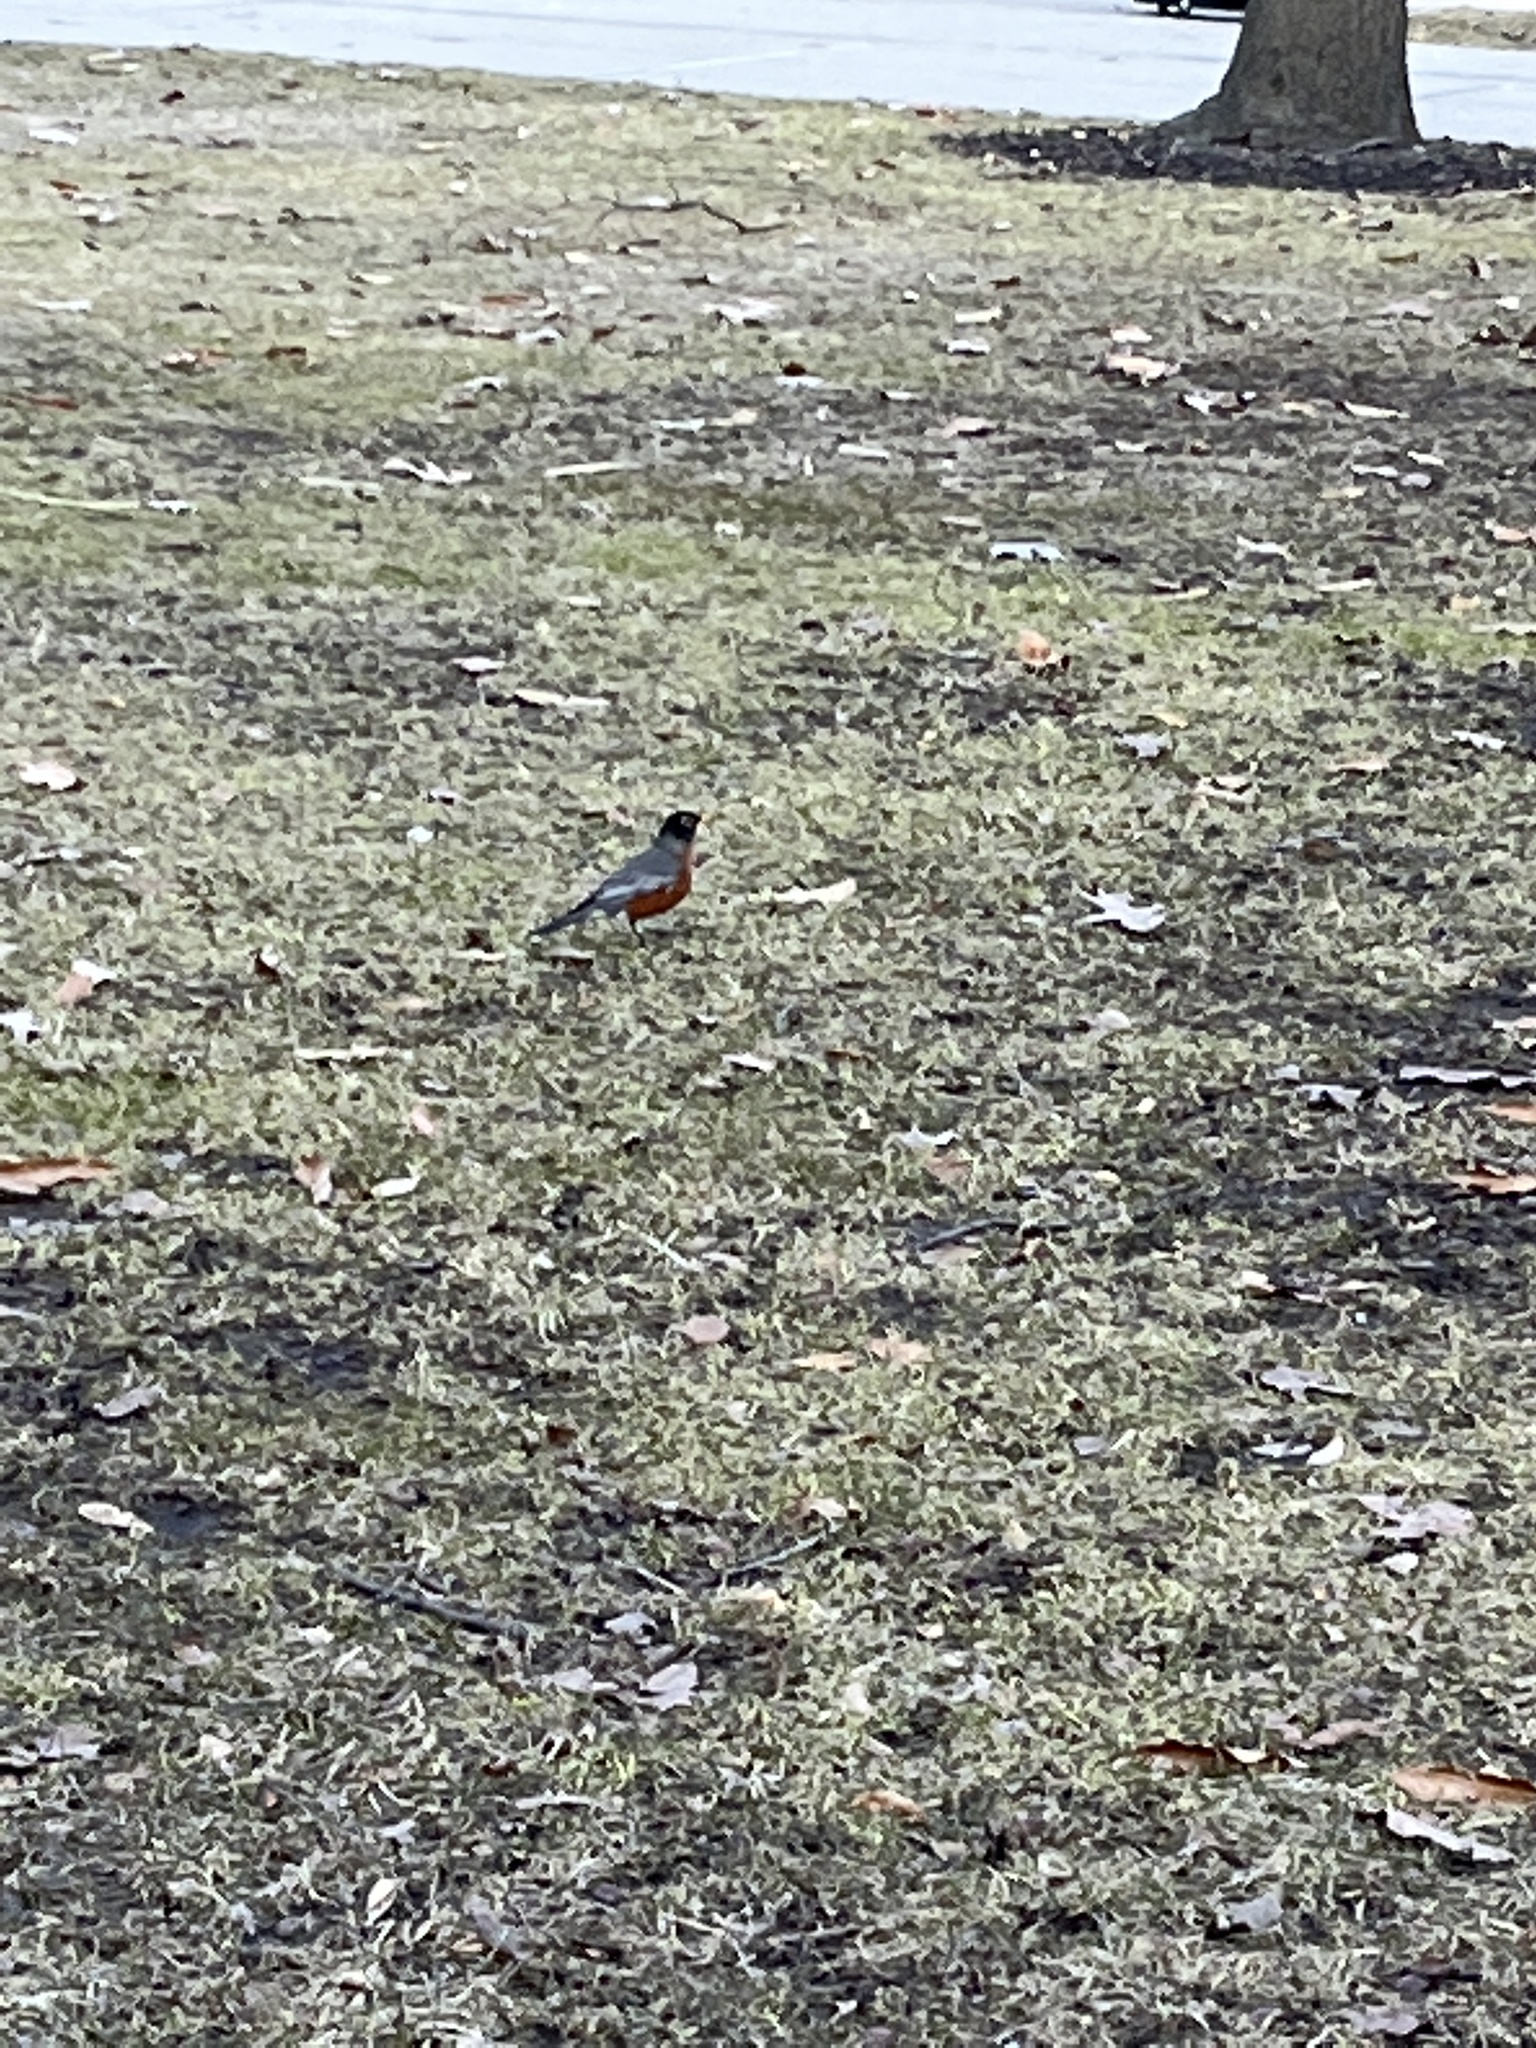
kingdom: Animalia
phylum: Chordata
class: Aves
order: Passeriformes
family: Turdidae
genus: Turdus
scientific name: Turdus migratorius
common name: American robin
